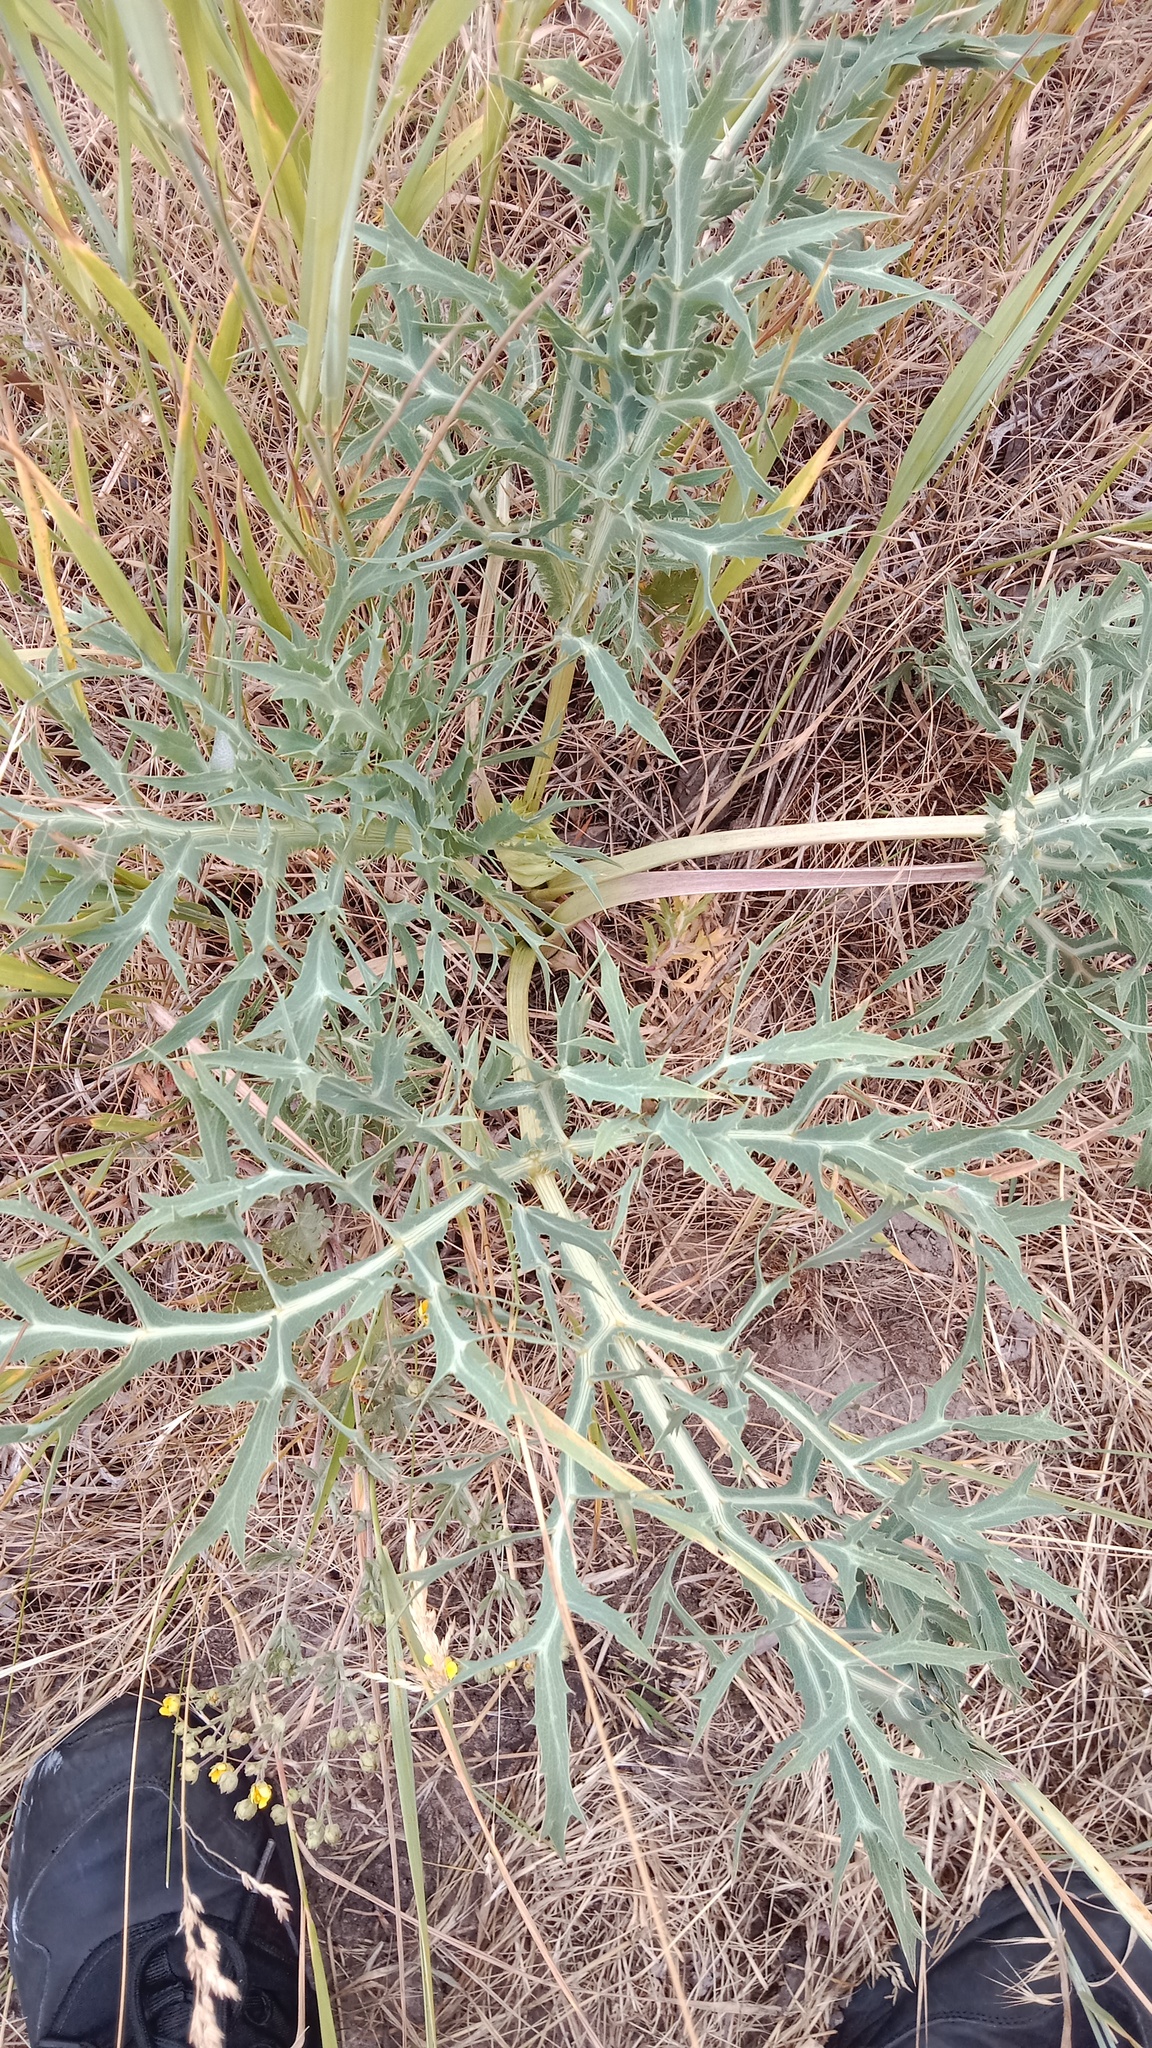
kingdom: Plantae
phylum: Tracheophyta
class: Magnoliopsida
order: Apiales
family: Apiaceae
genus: Eryngium
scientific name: Eryngium campestre
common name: Field eryngo
